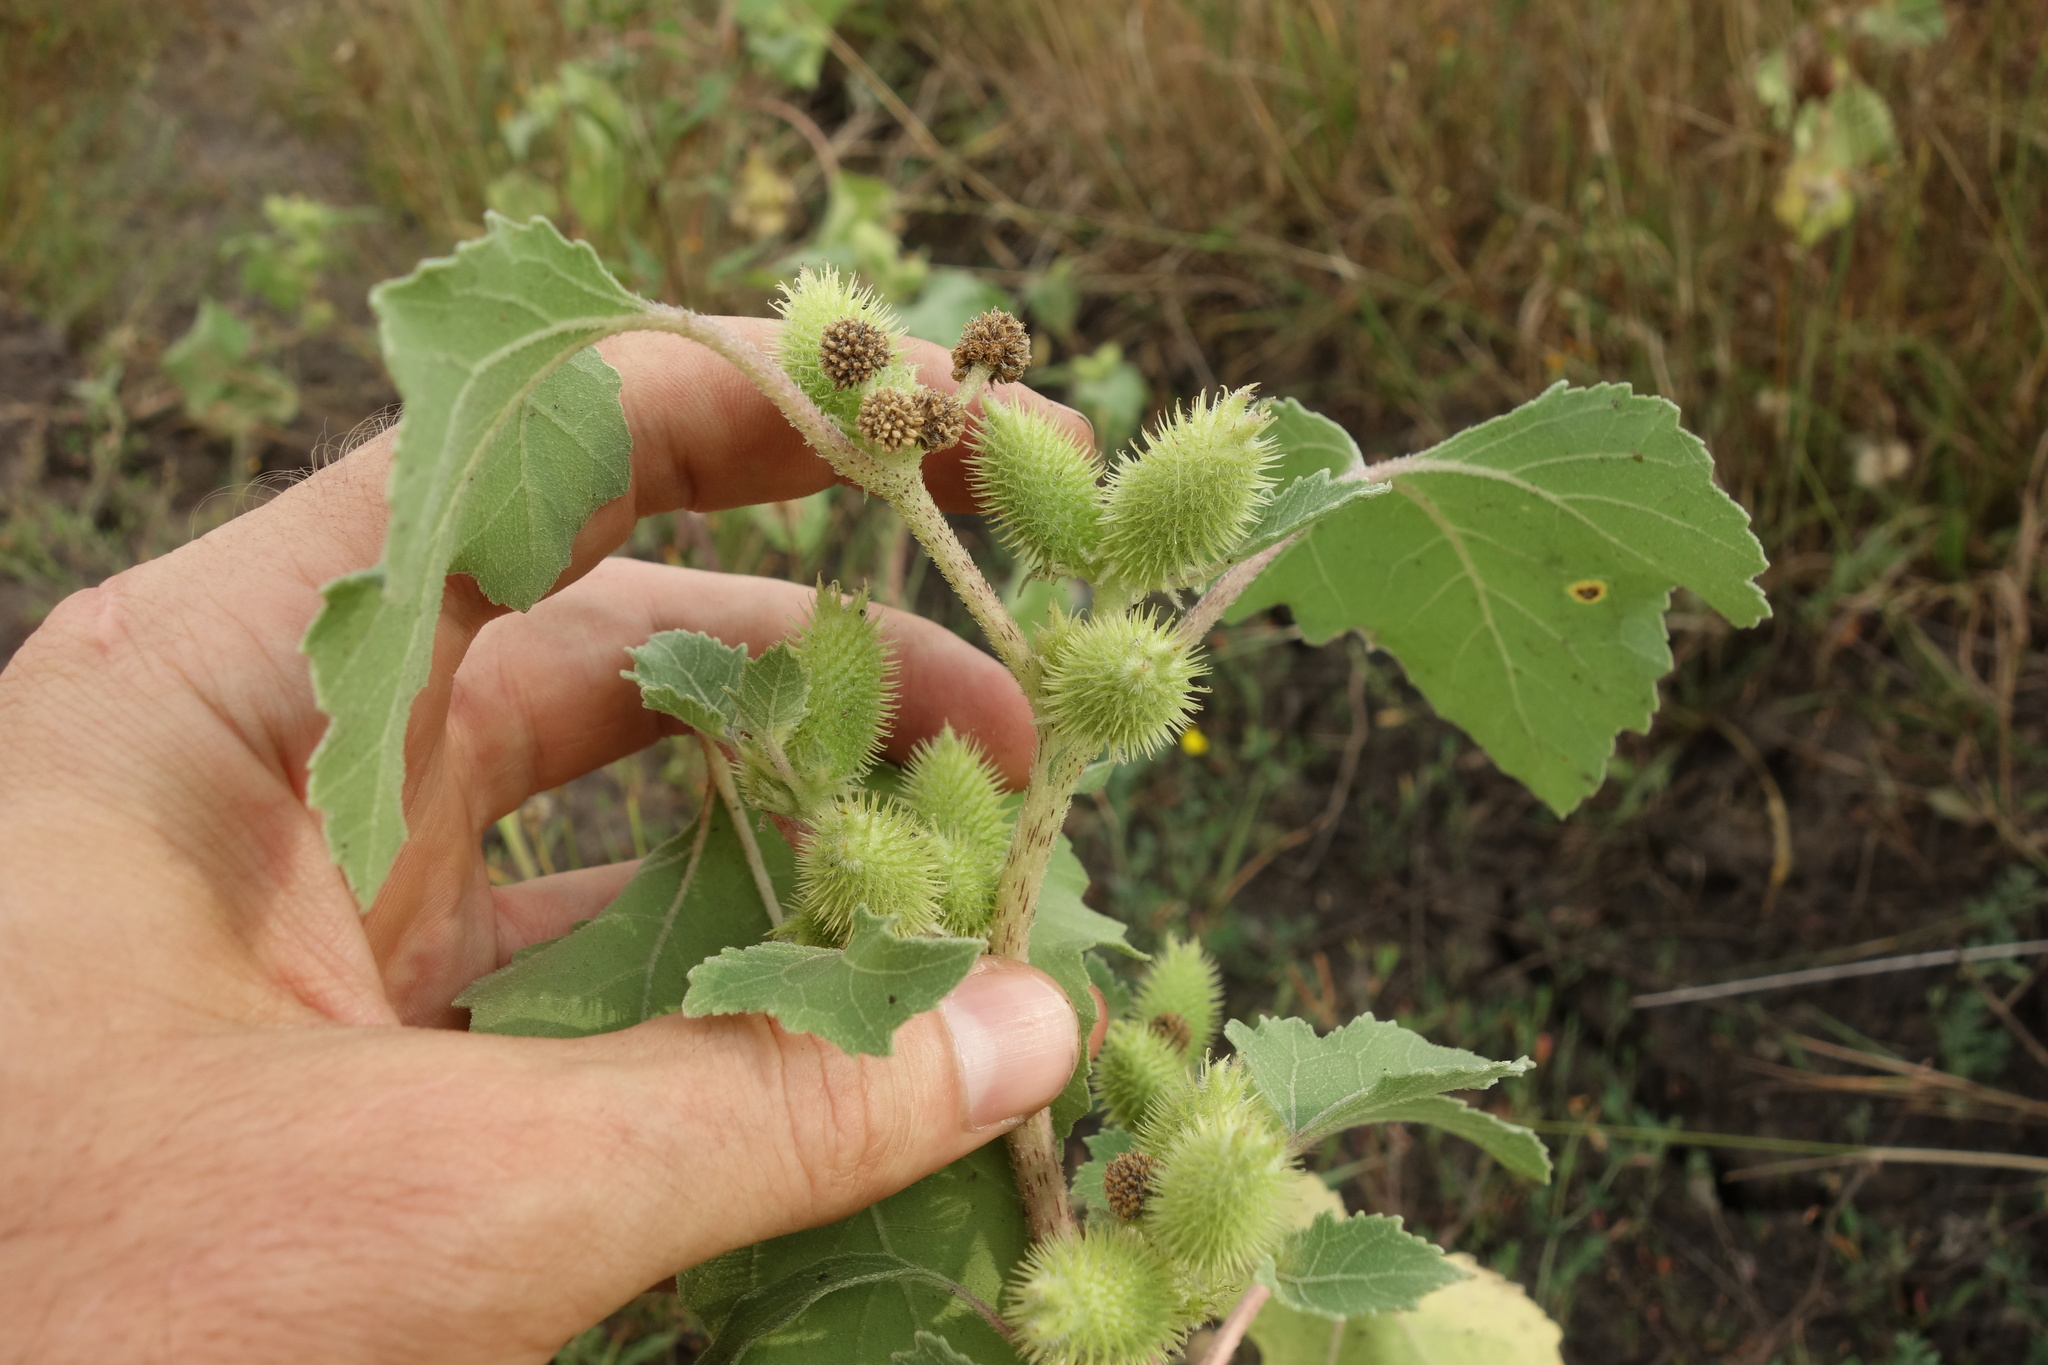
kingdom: Plantae
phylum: Tracheophyta
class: Magnoliopsida
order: Asterales
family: Asteraceae
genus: Xanthium
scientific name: Xanthium orientale
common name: Californian burr
